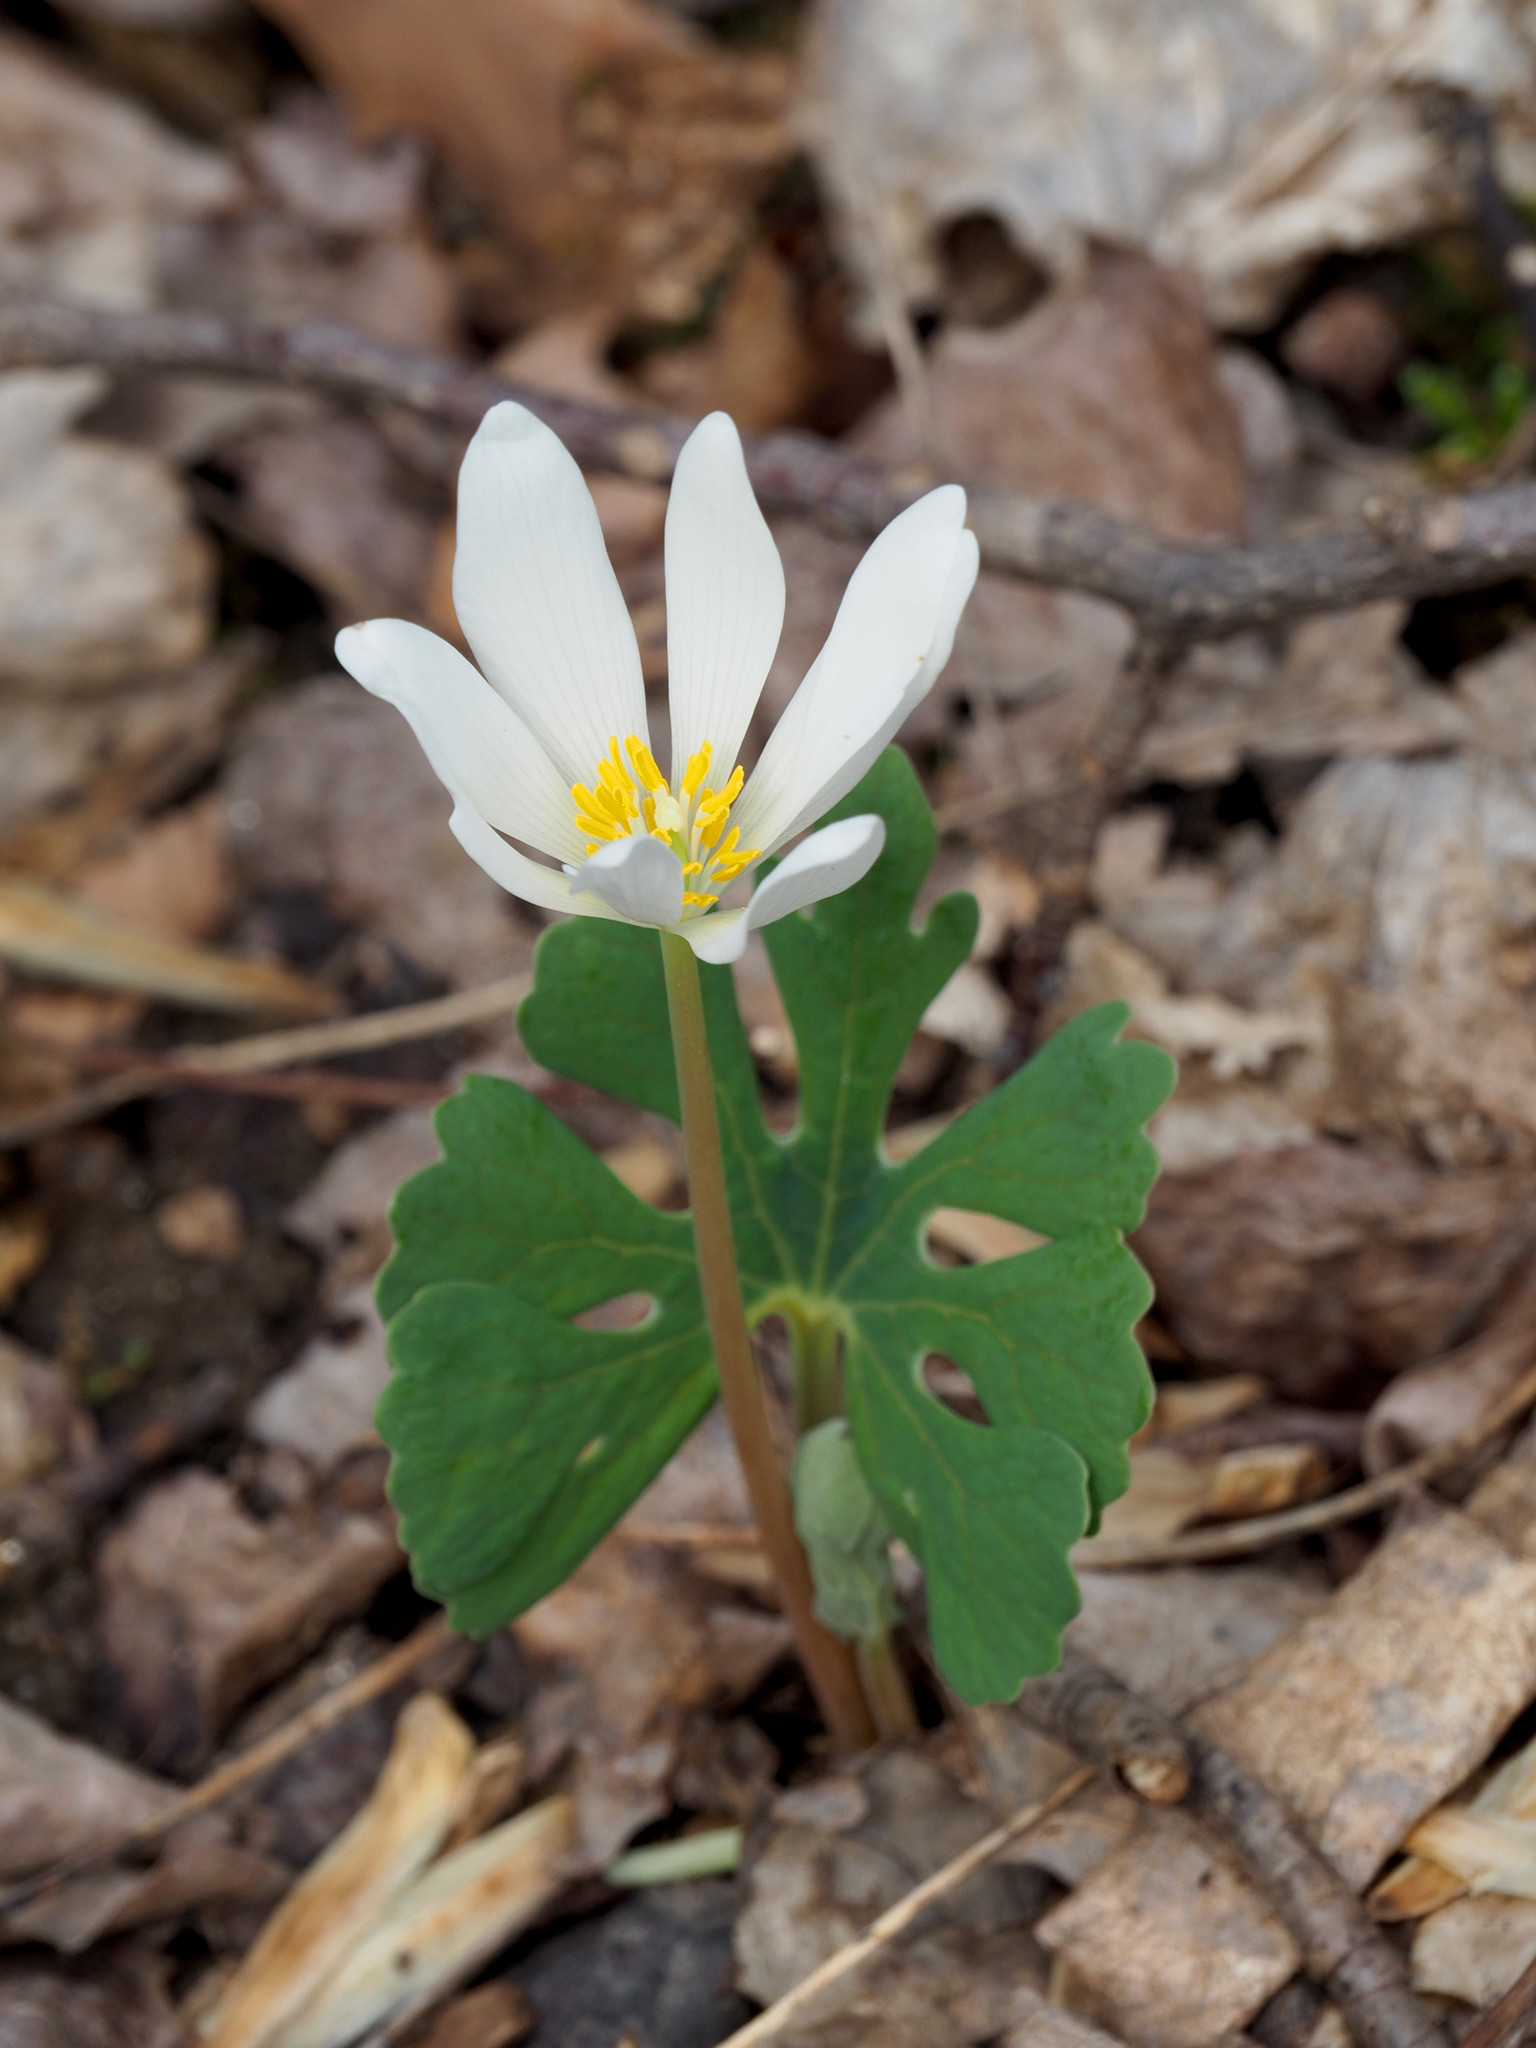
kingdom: Plantae
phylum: Tracheophyta
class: Magnoliopsida
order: Ranunculales
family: Papaveraceae
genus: Sanguinaria
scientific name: Sanguinaria canadensis
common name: Bloodroot
